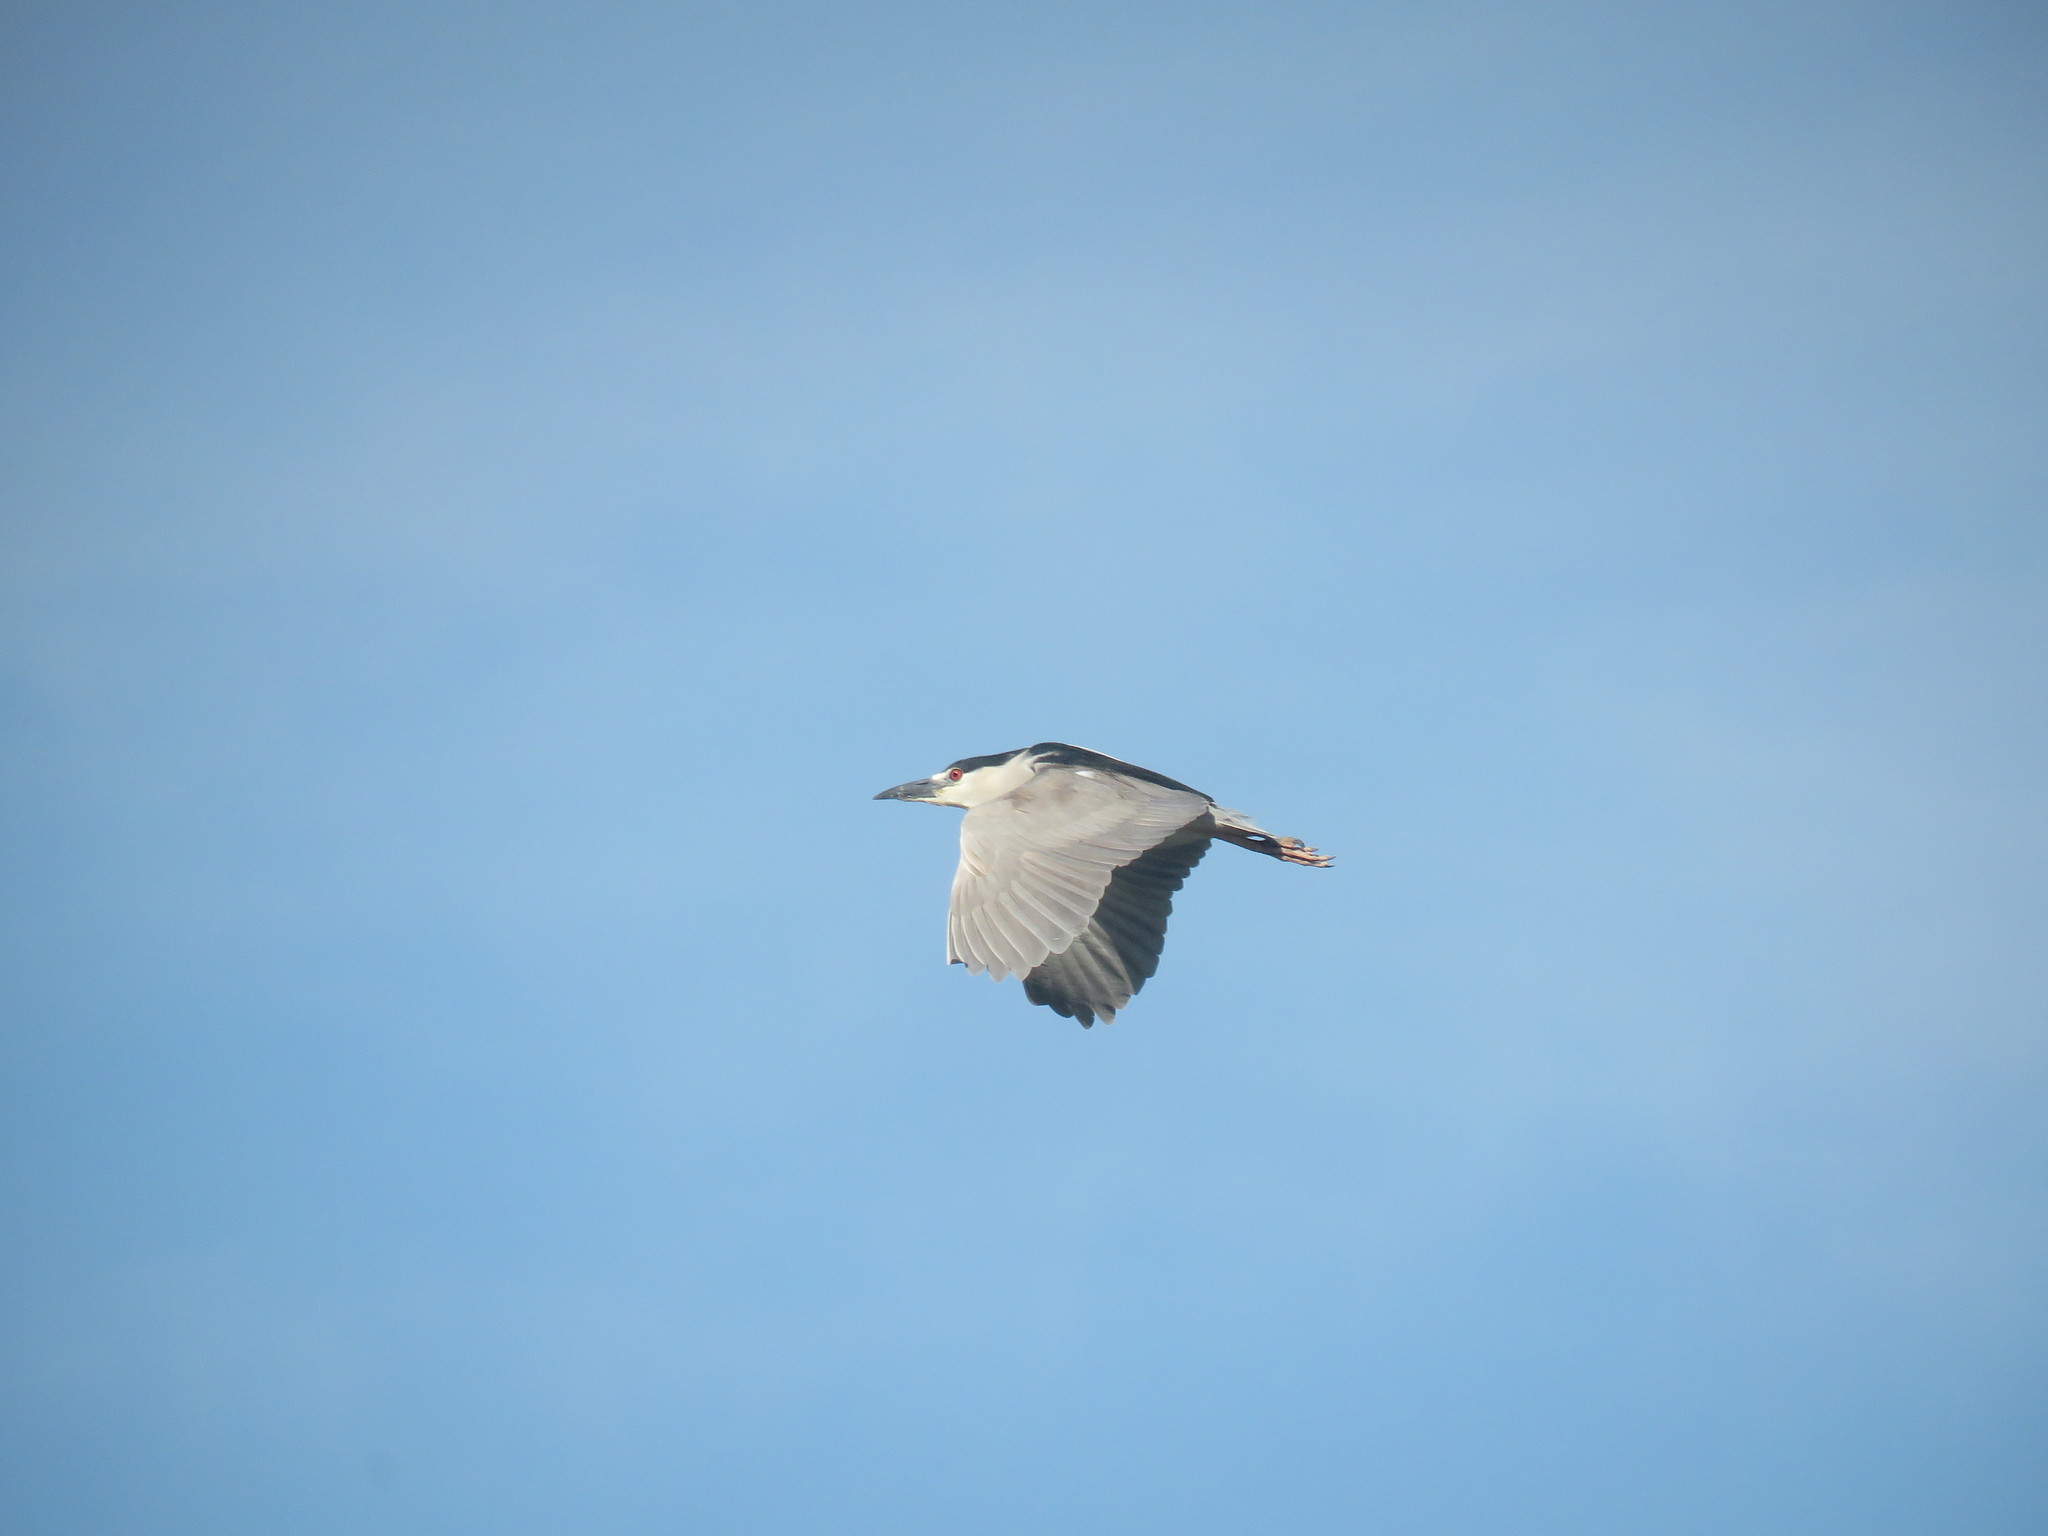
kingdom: Animalia
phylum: Chordata
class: Aves
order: Pelecaniformes
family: Ardeidae
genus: Nycticorax
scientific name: Nycticorax nycticorax
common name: Black-crowned night heron
